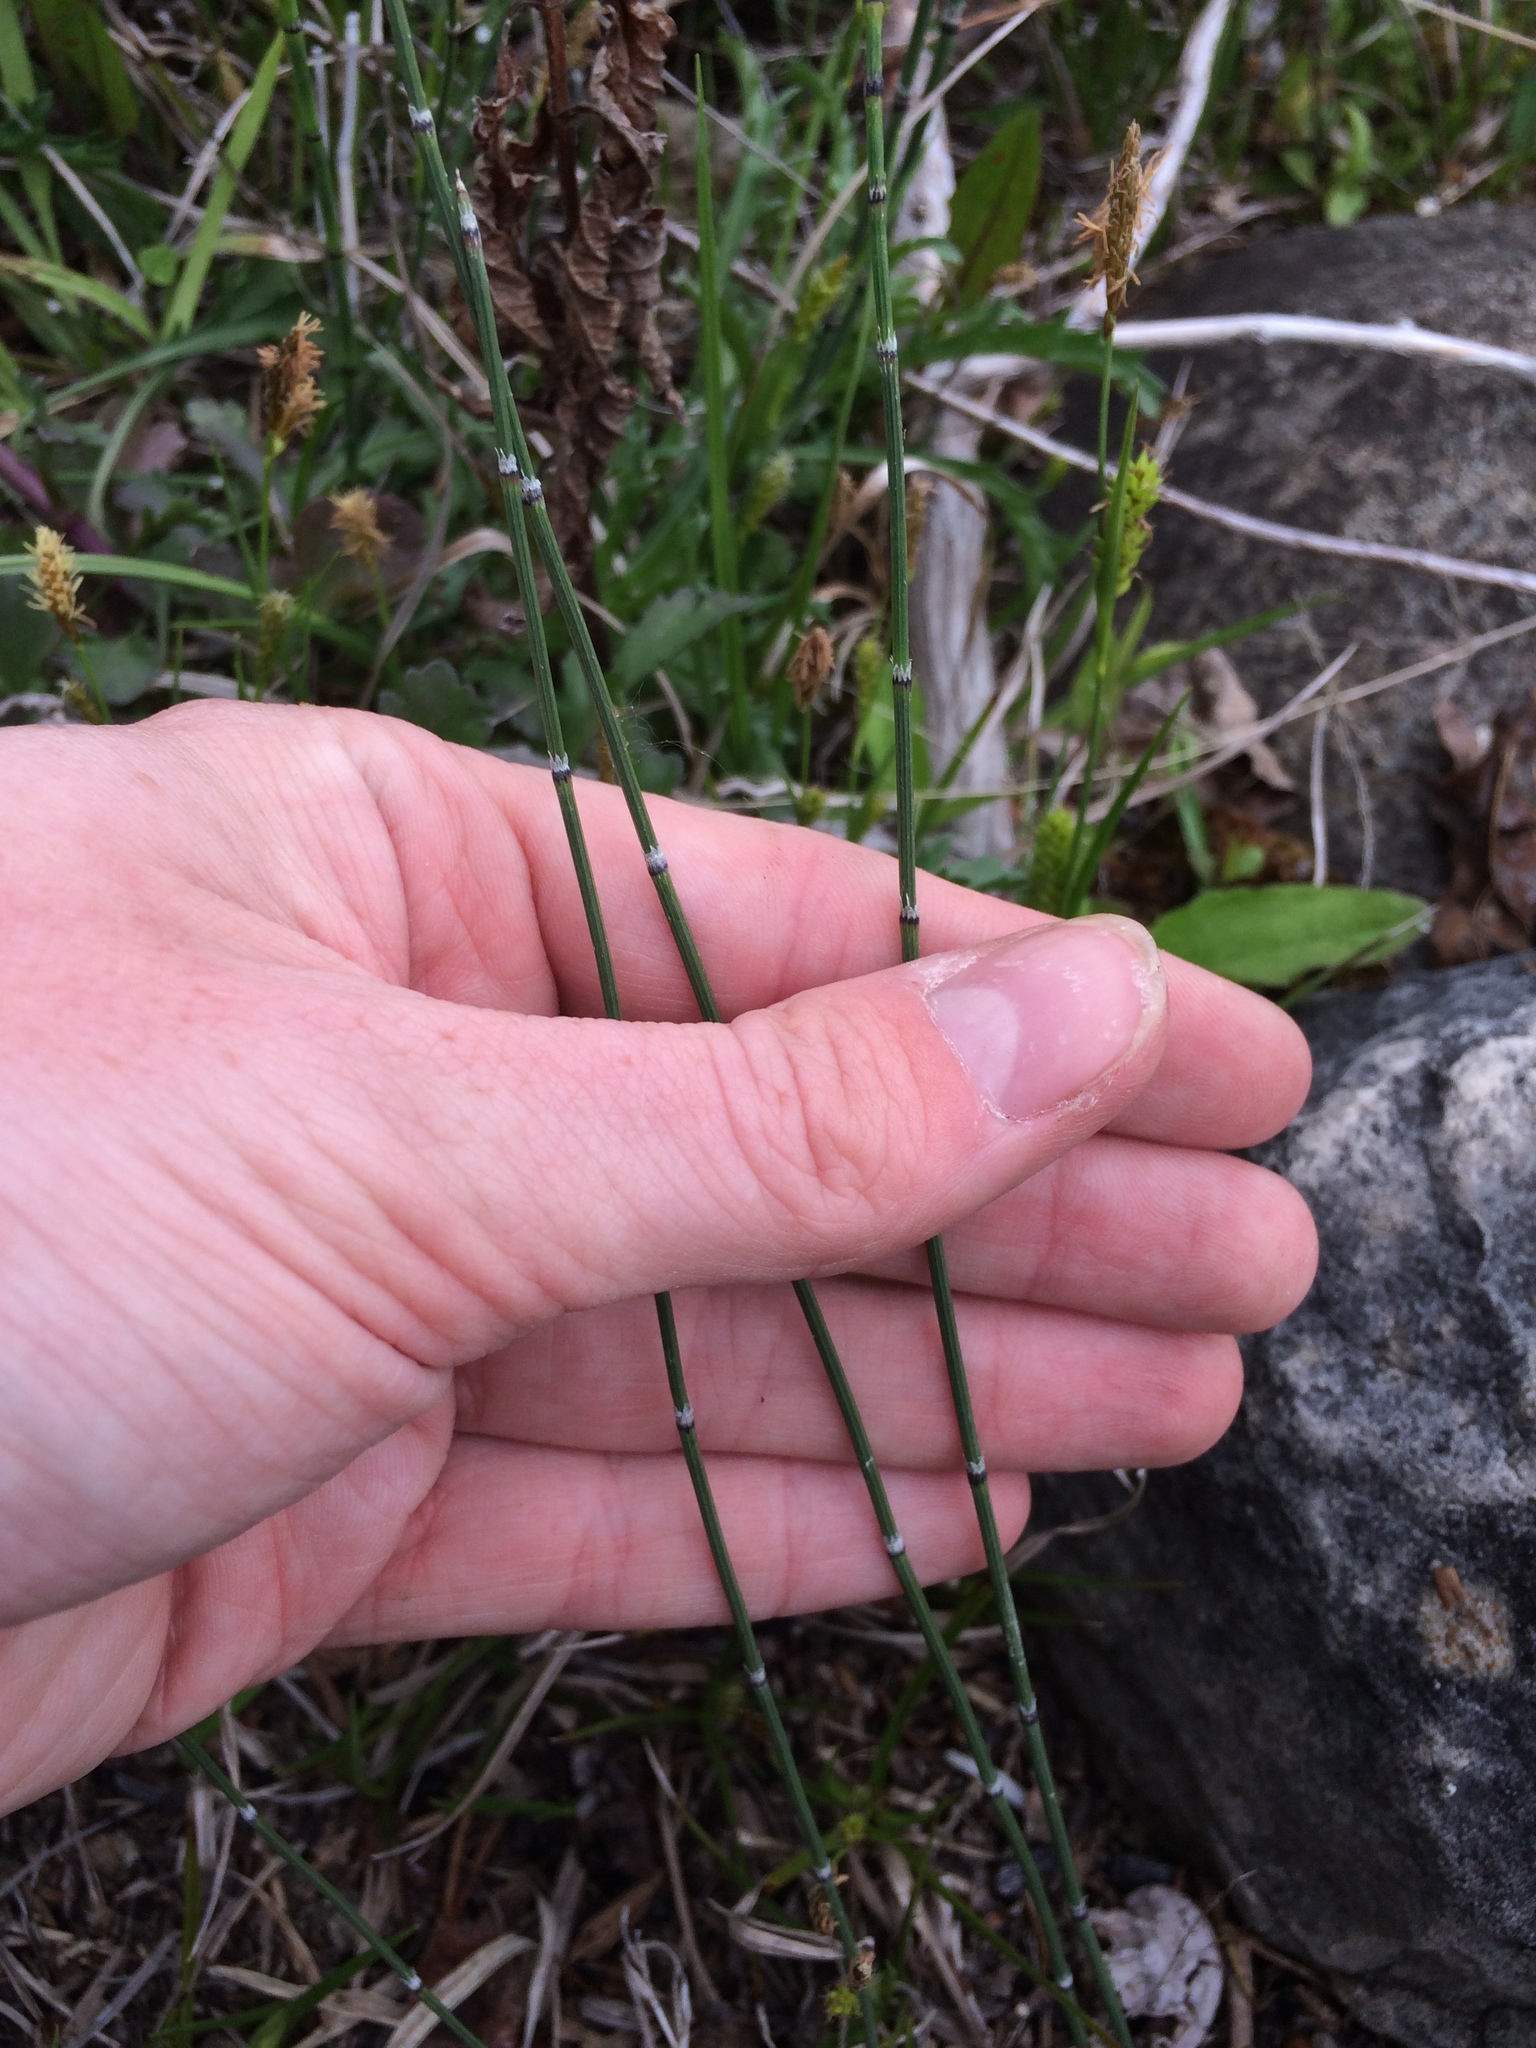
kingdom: Plantae
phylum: Tracheophyta
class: Polypodiopsida
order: Equisetales
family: Equisetaceae
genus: Equisetum
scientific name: Equisetum variegatum
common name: Variegated horsetail
